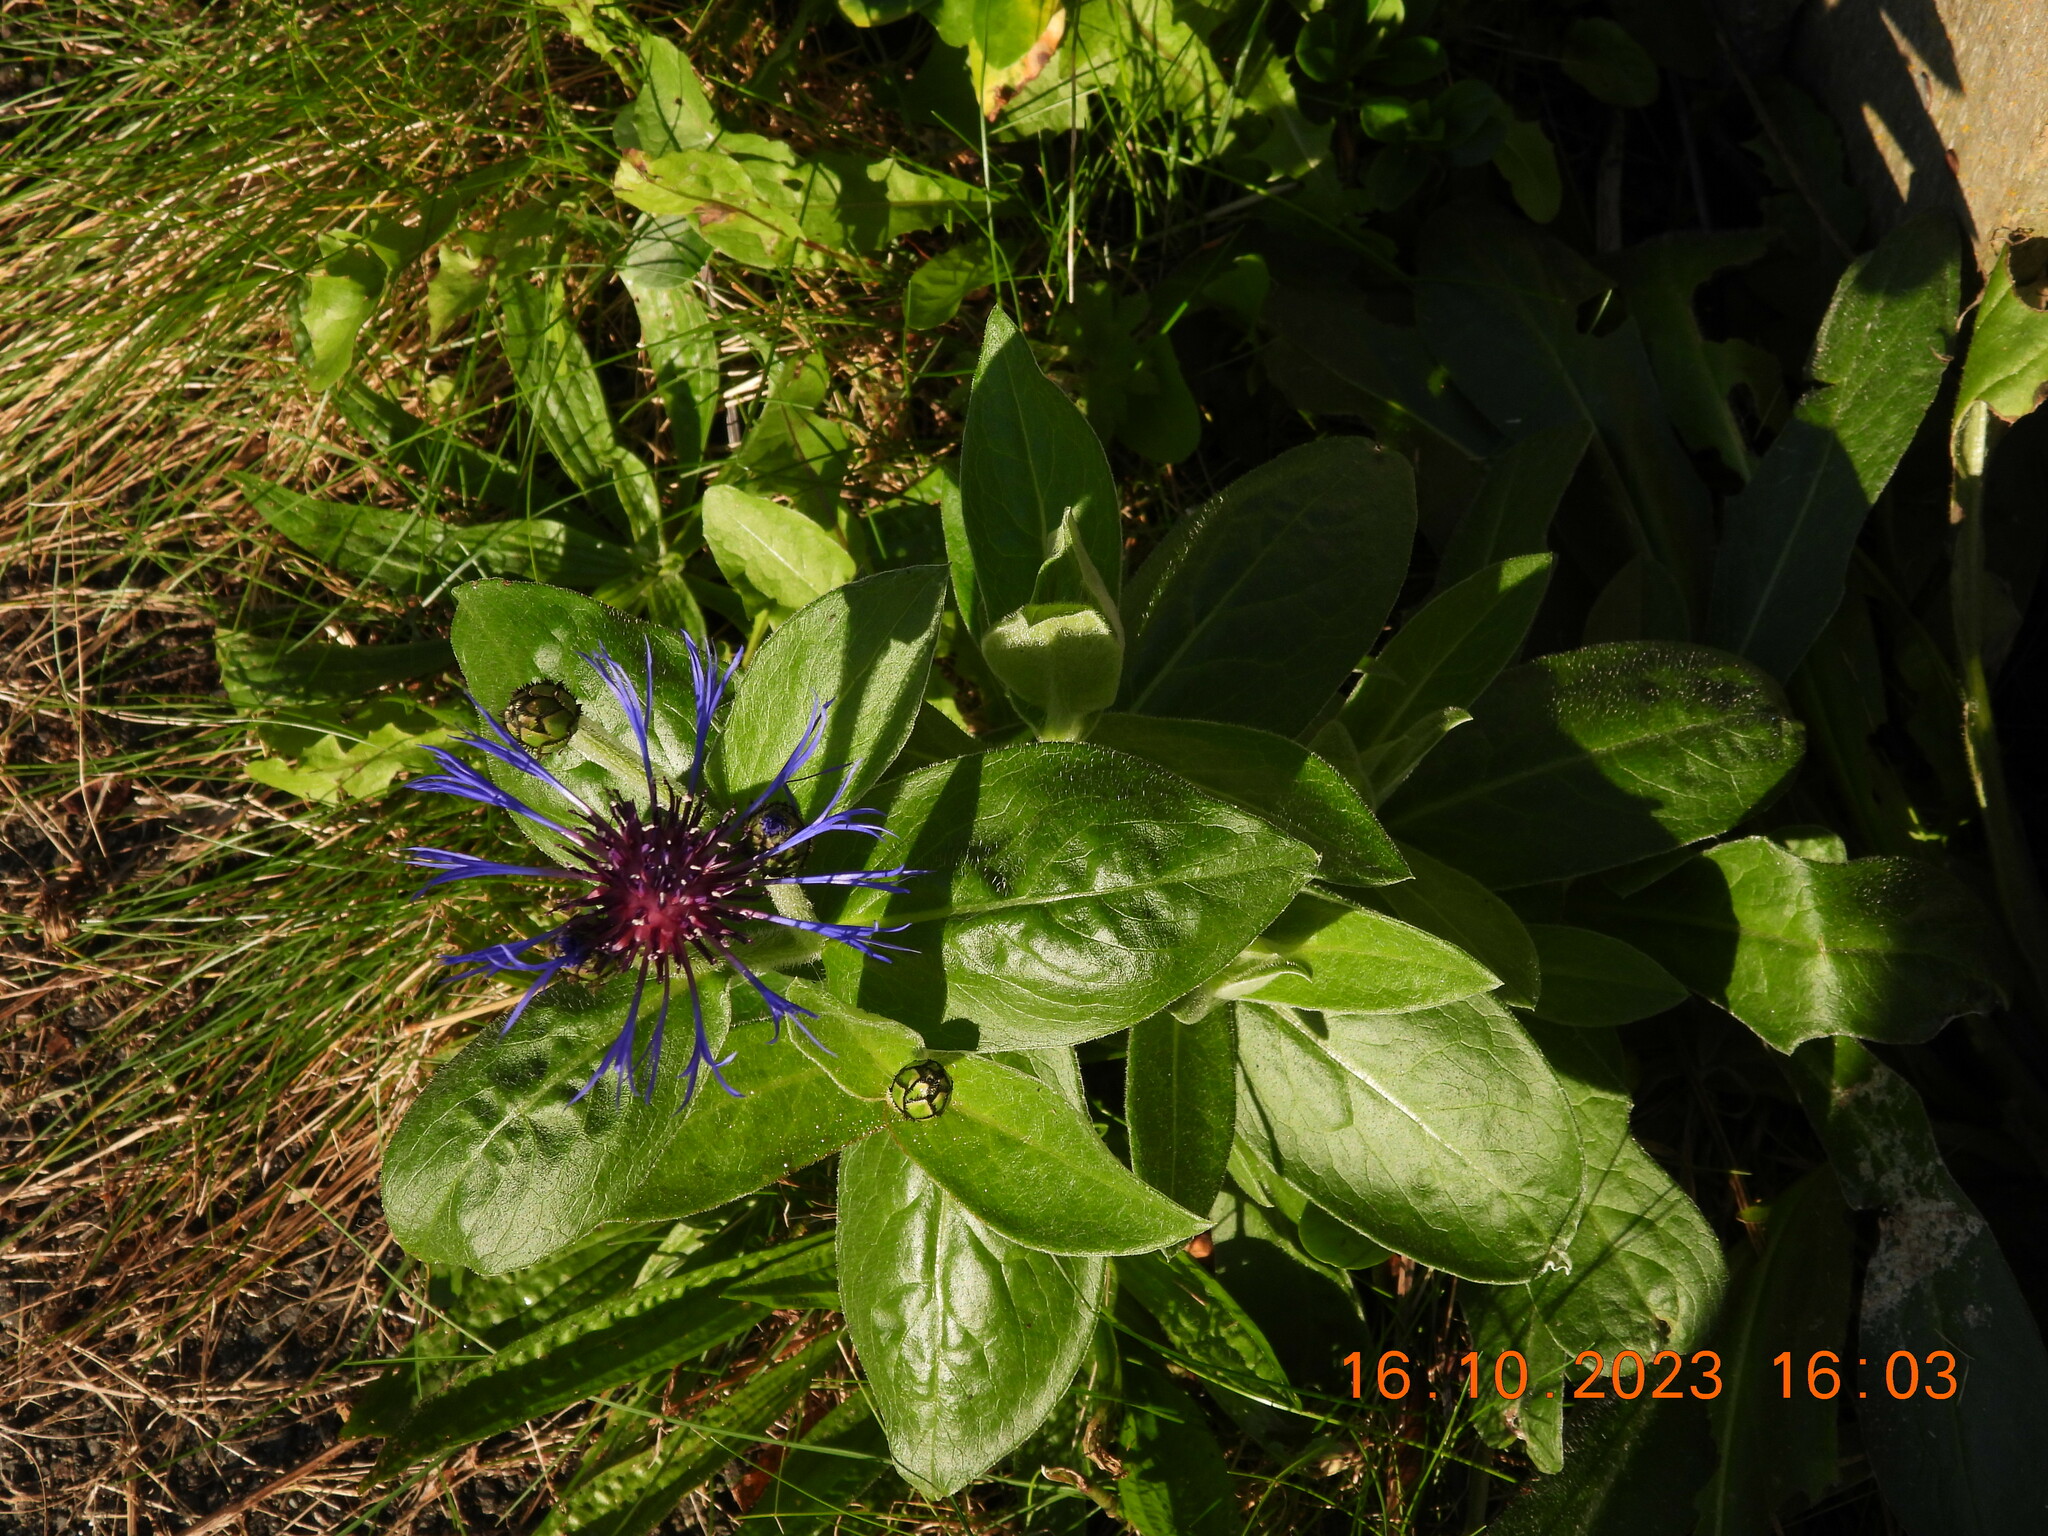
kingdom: Plantae
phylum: Tracheophyta
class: Magnoliopsida
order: Asterales
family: Asteraceae
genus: Centaurea
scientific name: Centaurea montana
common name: Perennial cornflower
